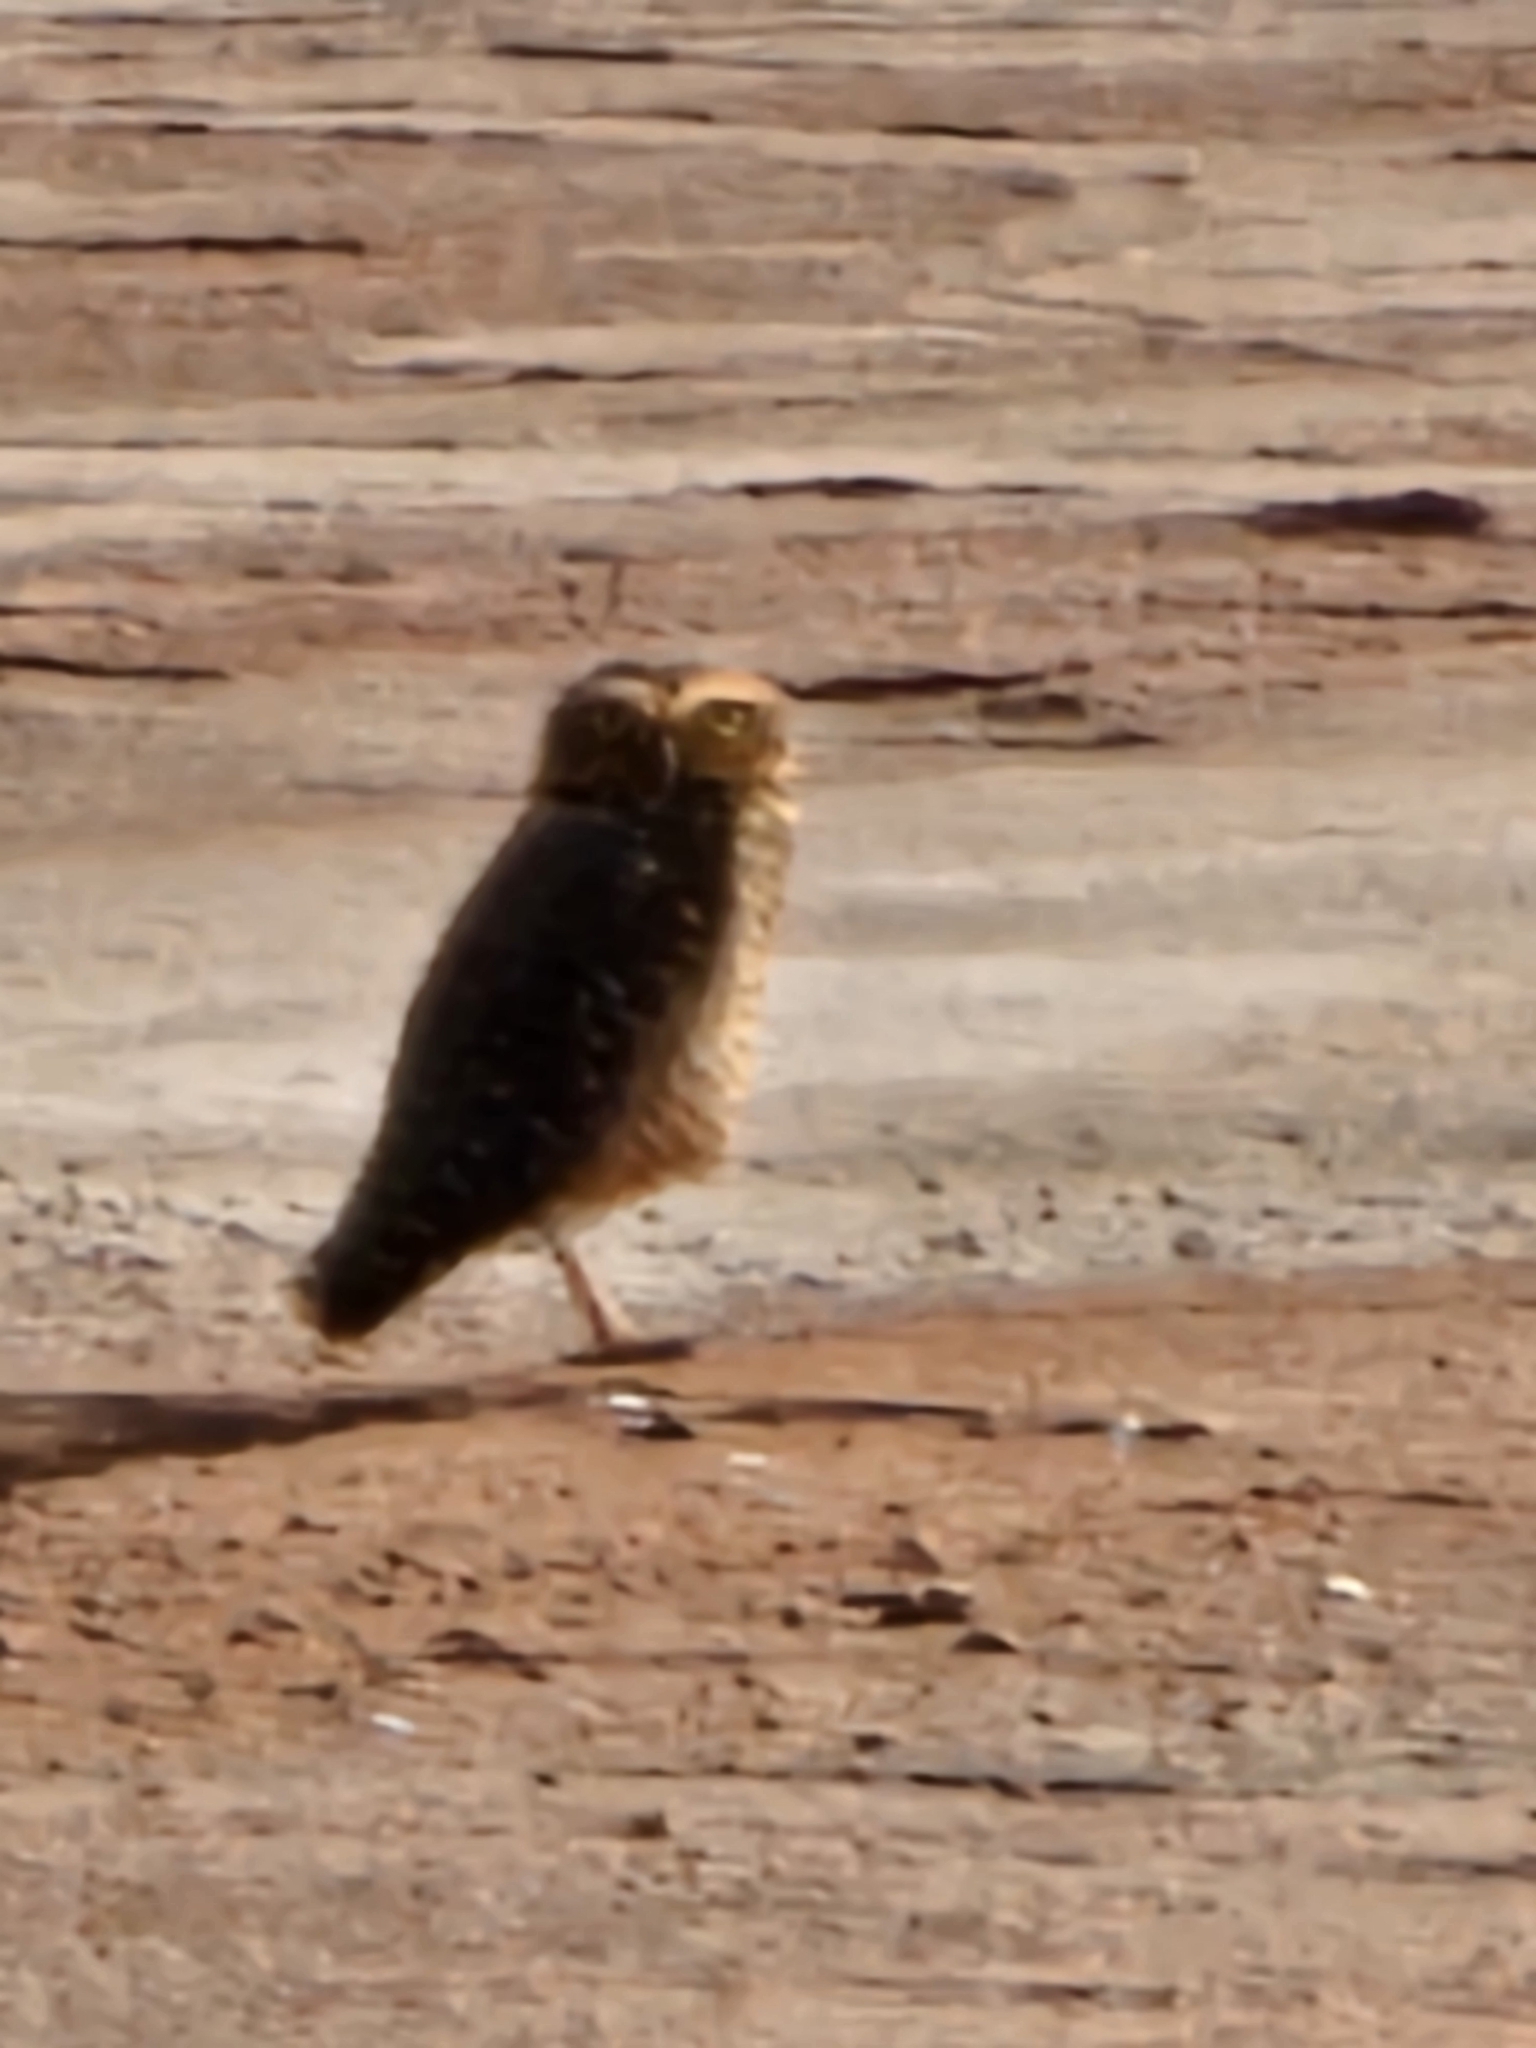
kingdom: Animalia
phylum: Chordata
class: Aves
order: Strigiformes
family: Strigidae
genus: Athene
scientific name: Athene cunicularia
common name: Burrowing owl
